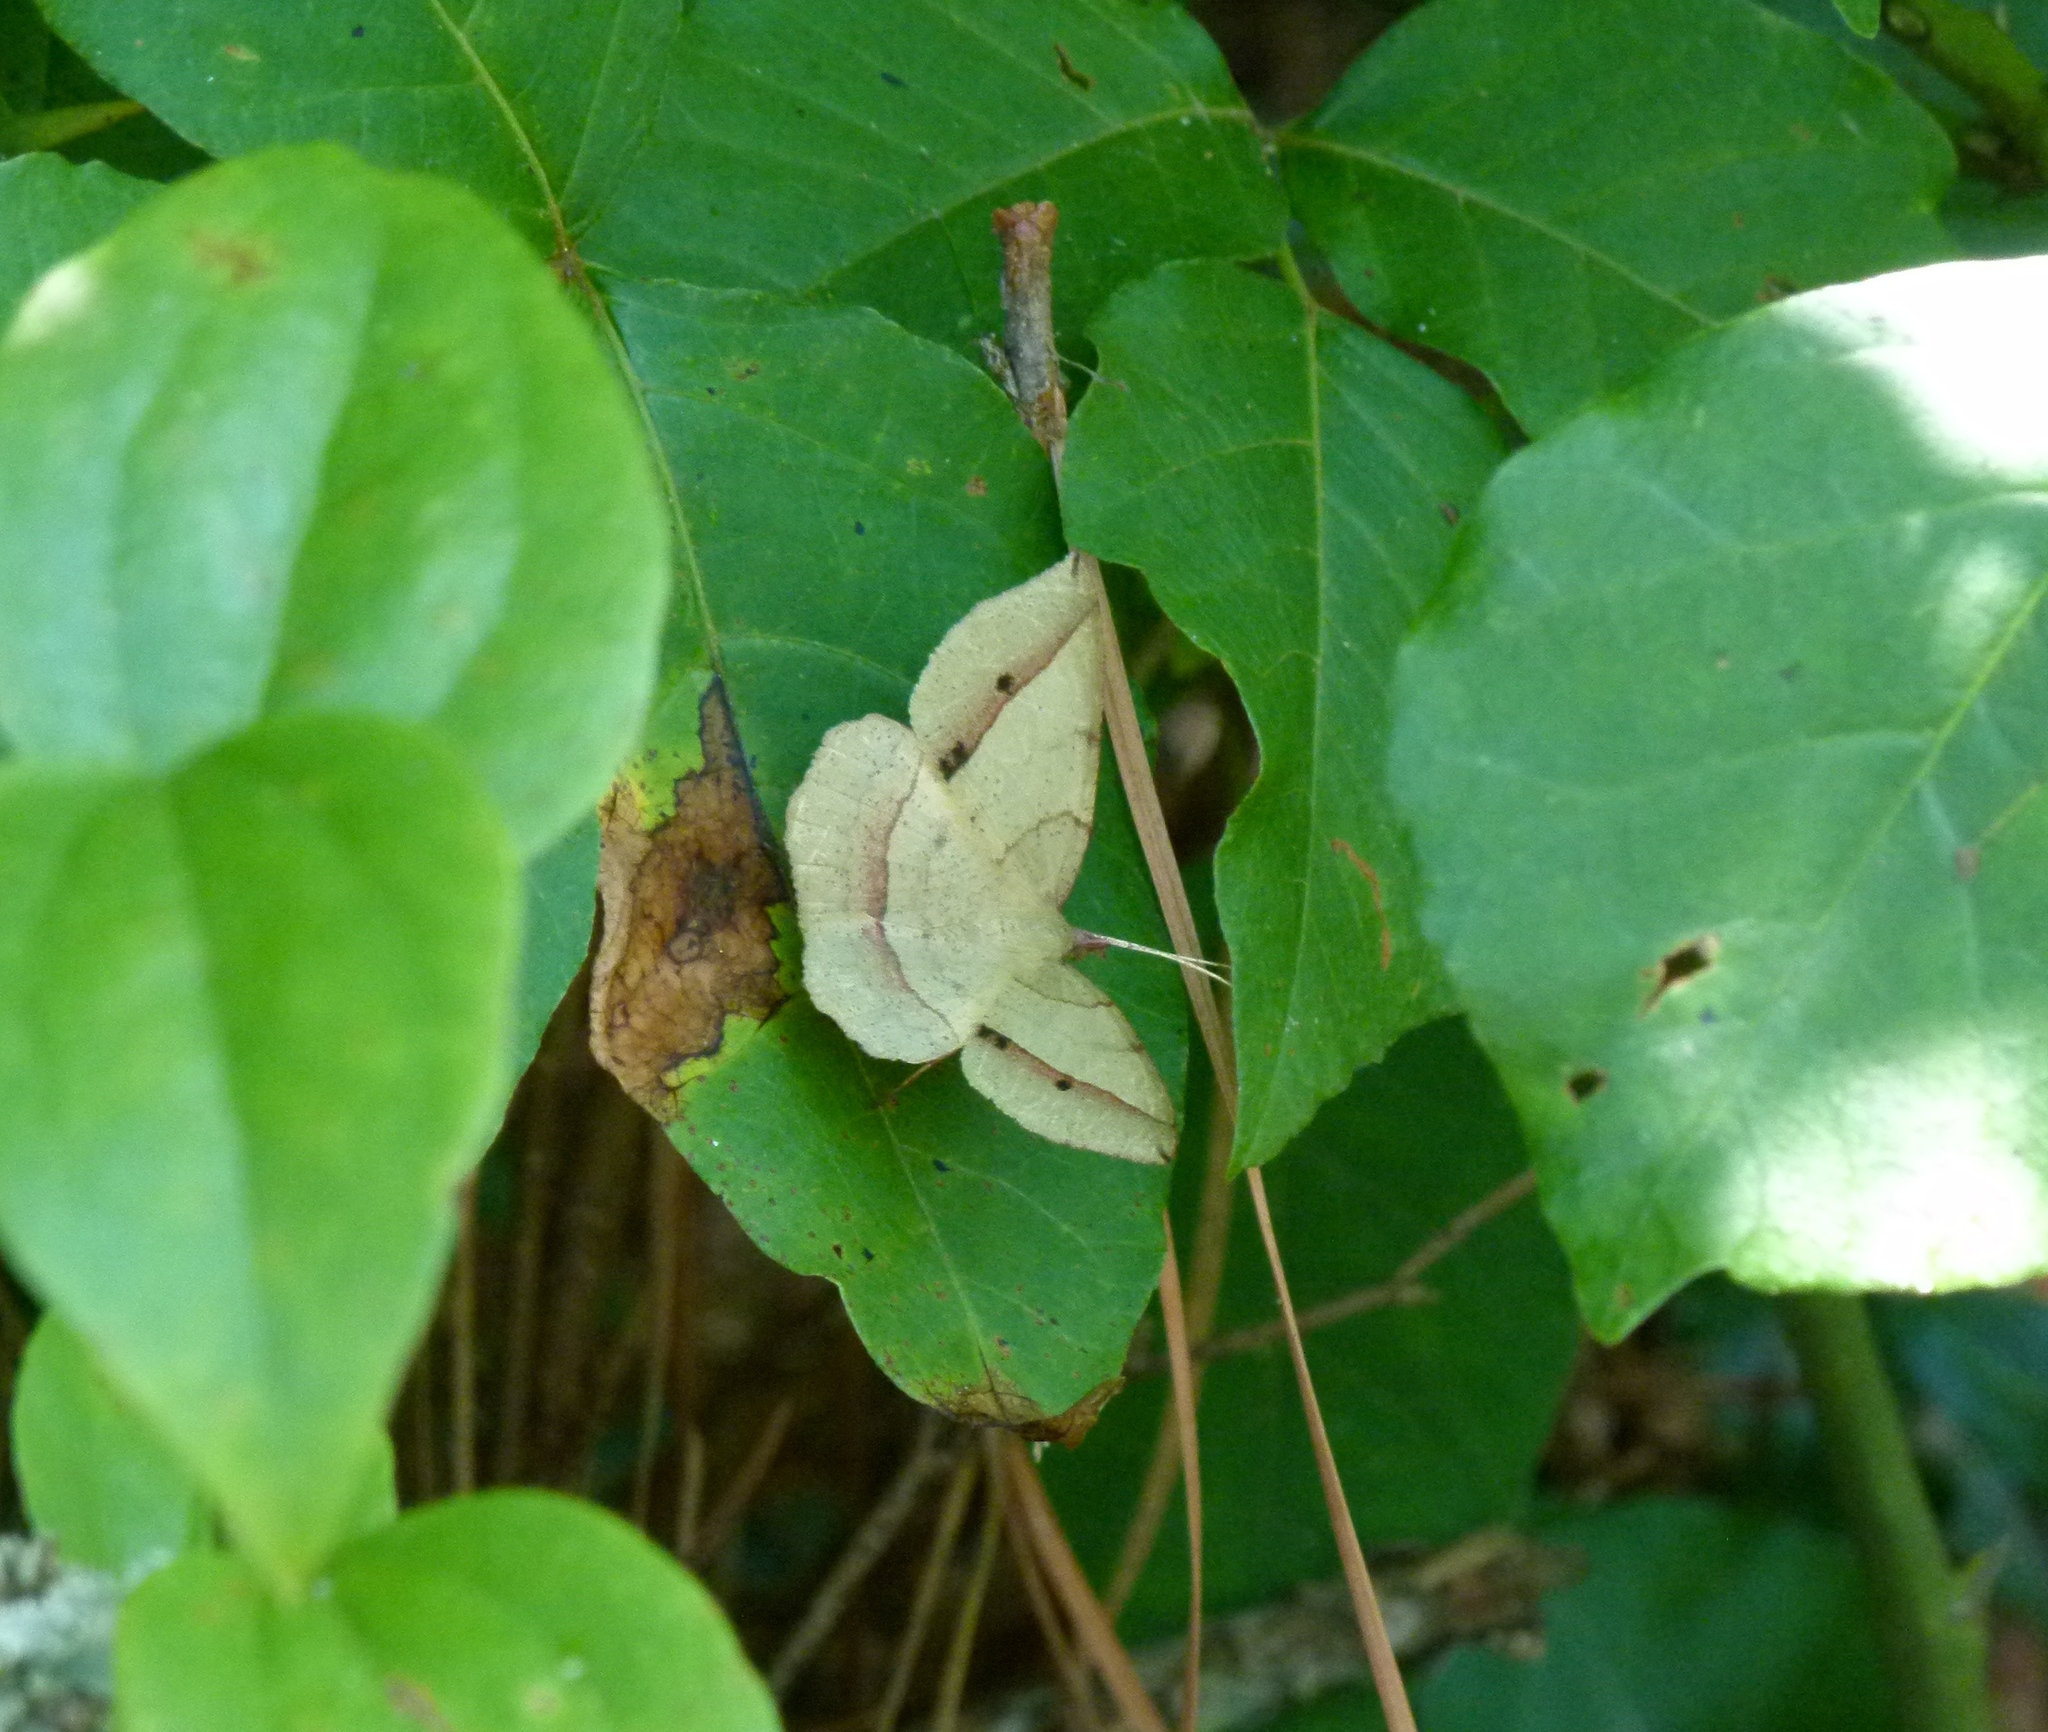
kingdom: Animalia
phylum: Arthropoda
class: Insecta
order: Lepidoptera
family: Geometridae
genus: Erastria
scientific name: Erastria cruentaria
